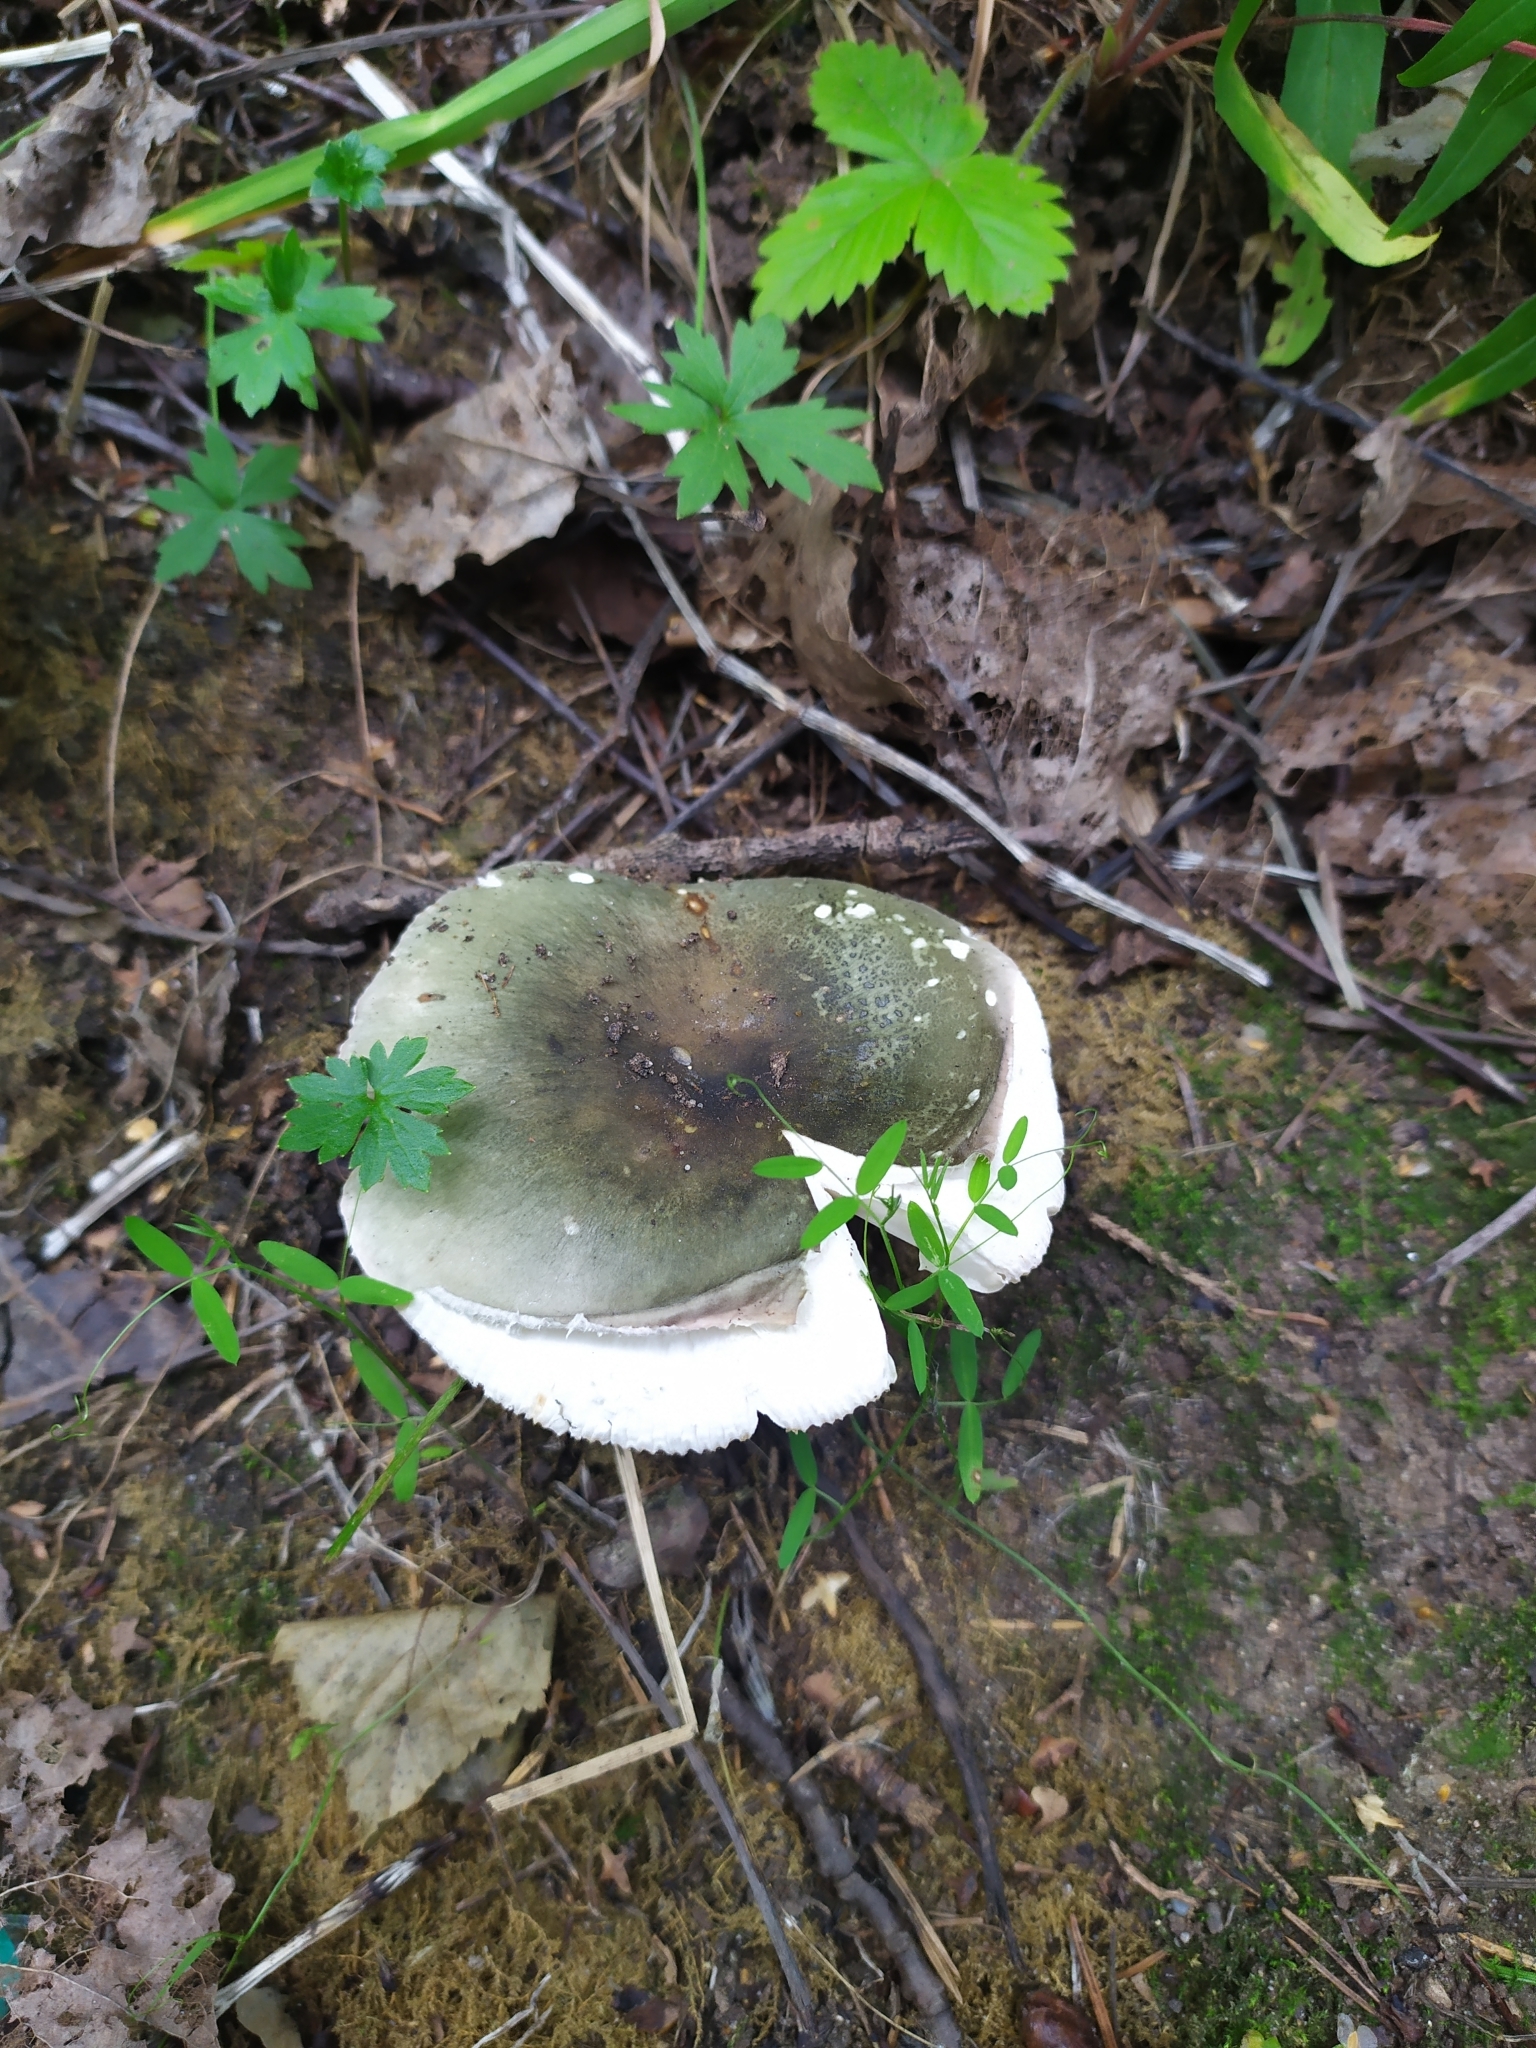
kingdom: Fungi
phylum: Basidiomycota
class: Agaricomycetes
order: Russulales
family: Russulaceae
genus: Russula
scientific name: Russula cyanoxantha
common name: Charcoal burner
